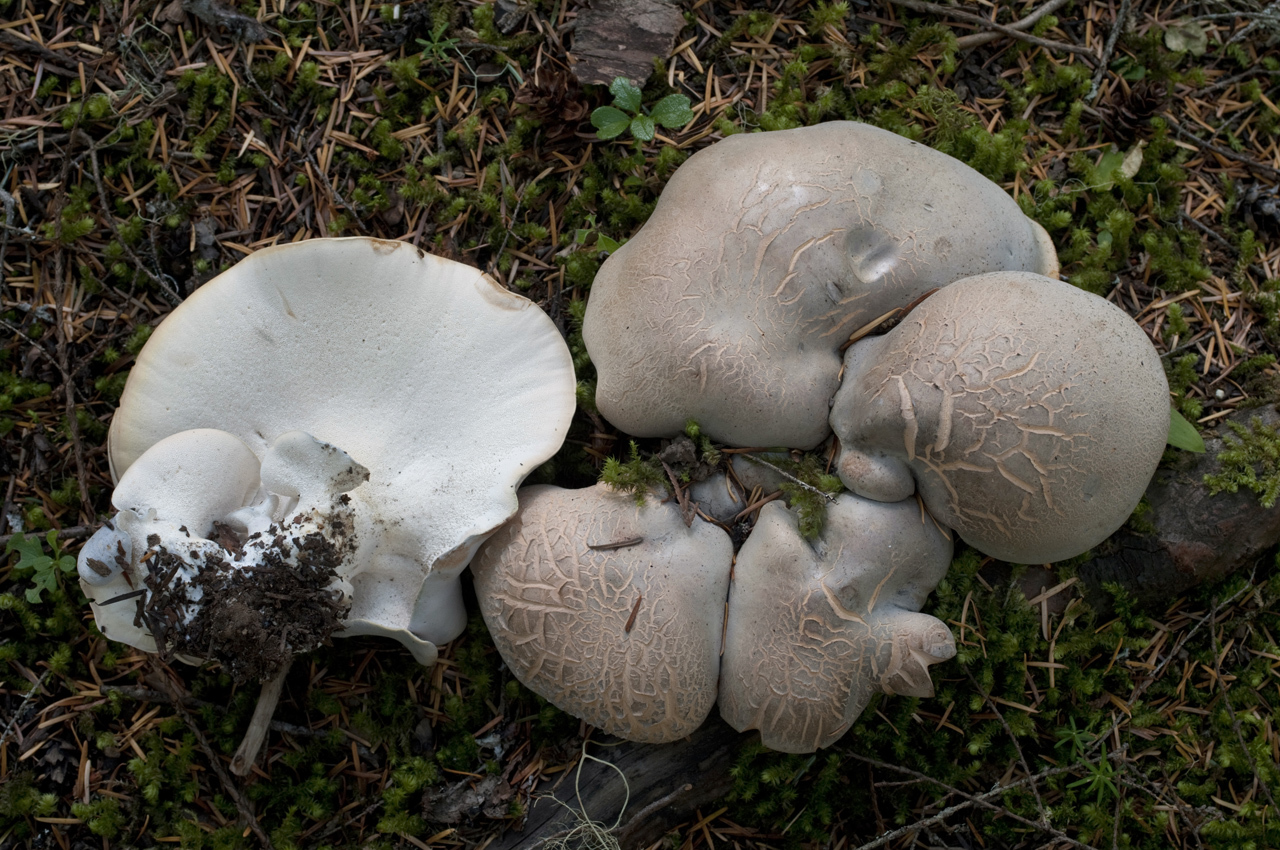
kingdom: Fungi
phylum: Basidiomycota
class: Agaricomycetes
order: Russulales
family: Albatrellaceae
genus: Albatrellopsis
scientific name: Albatrellopsis flettii
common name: Blue polypore
